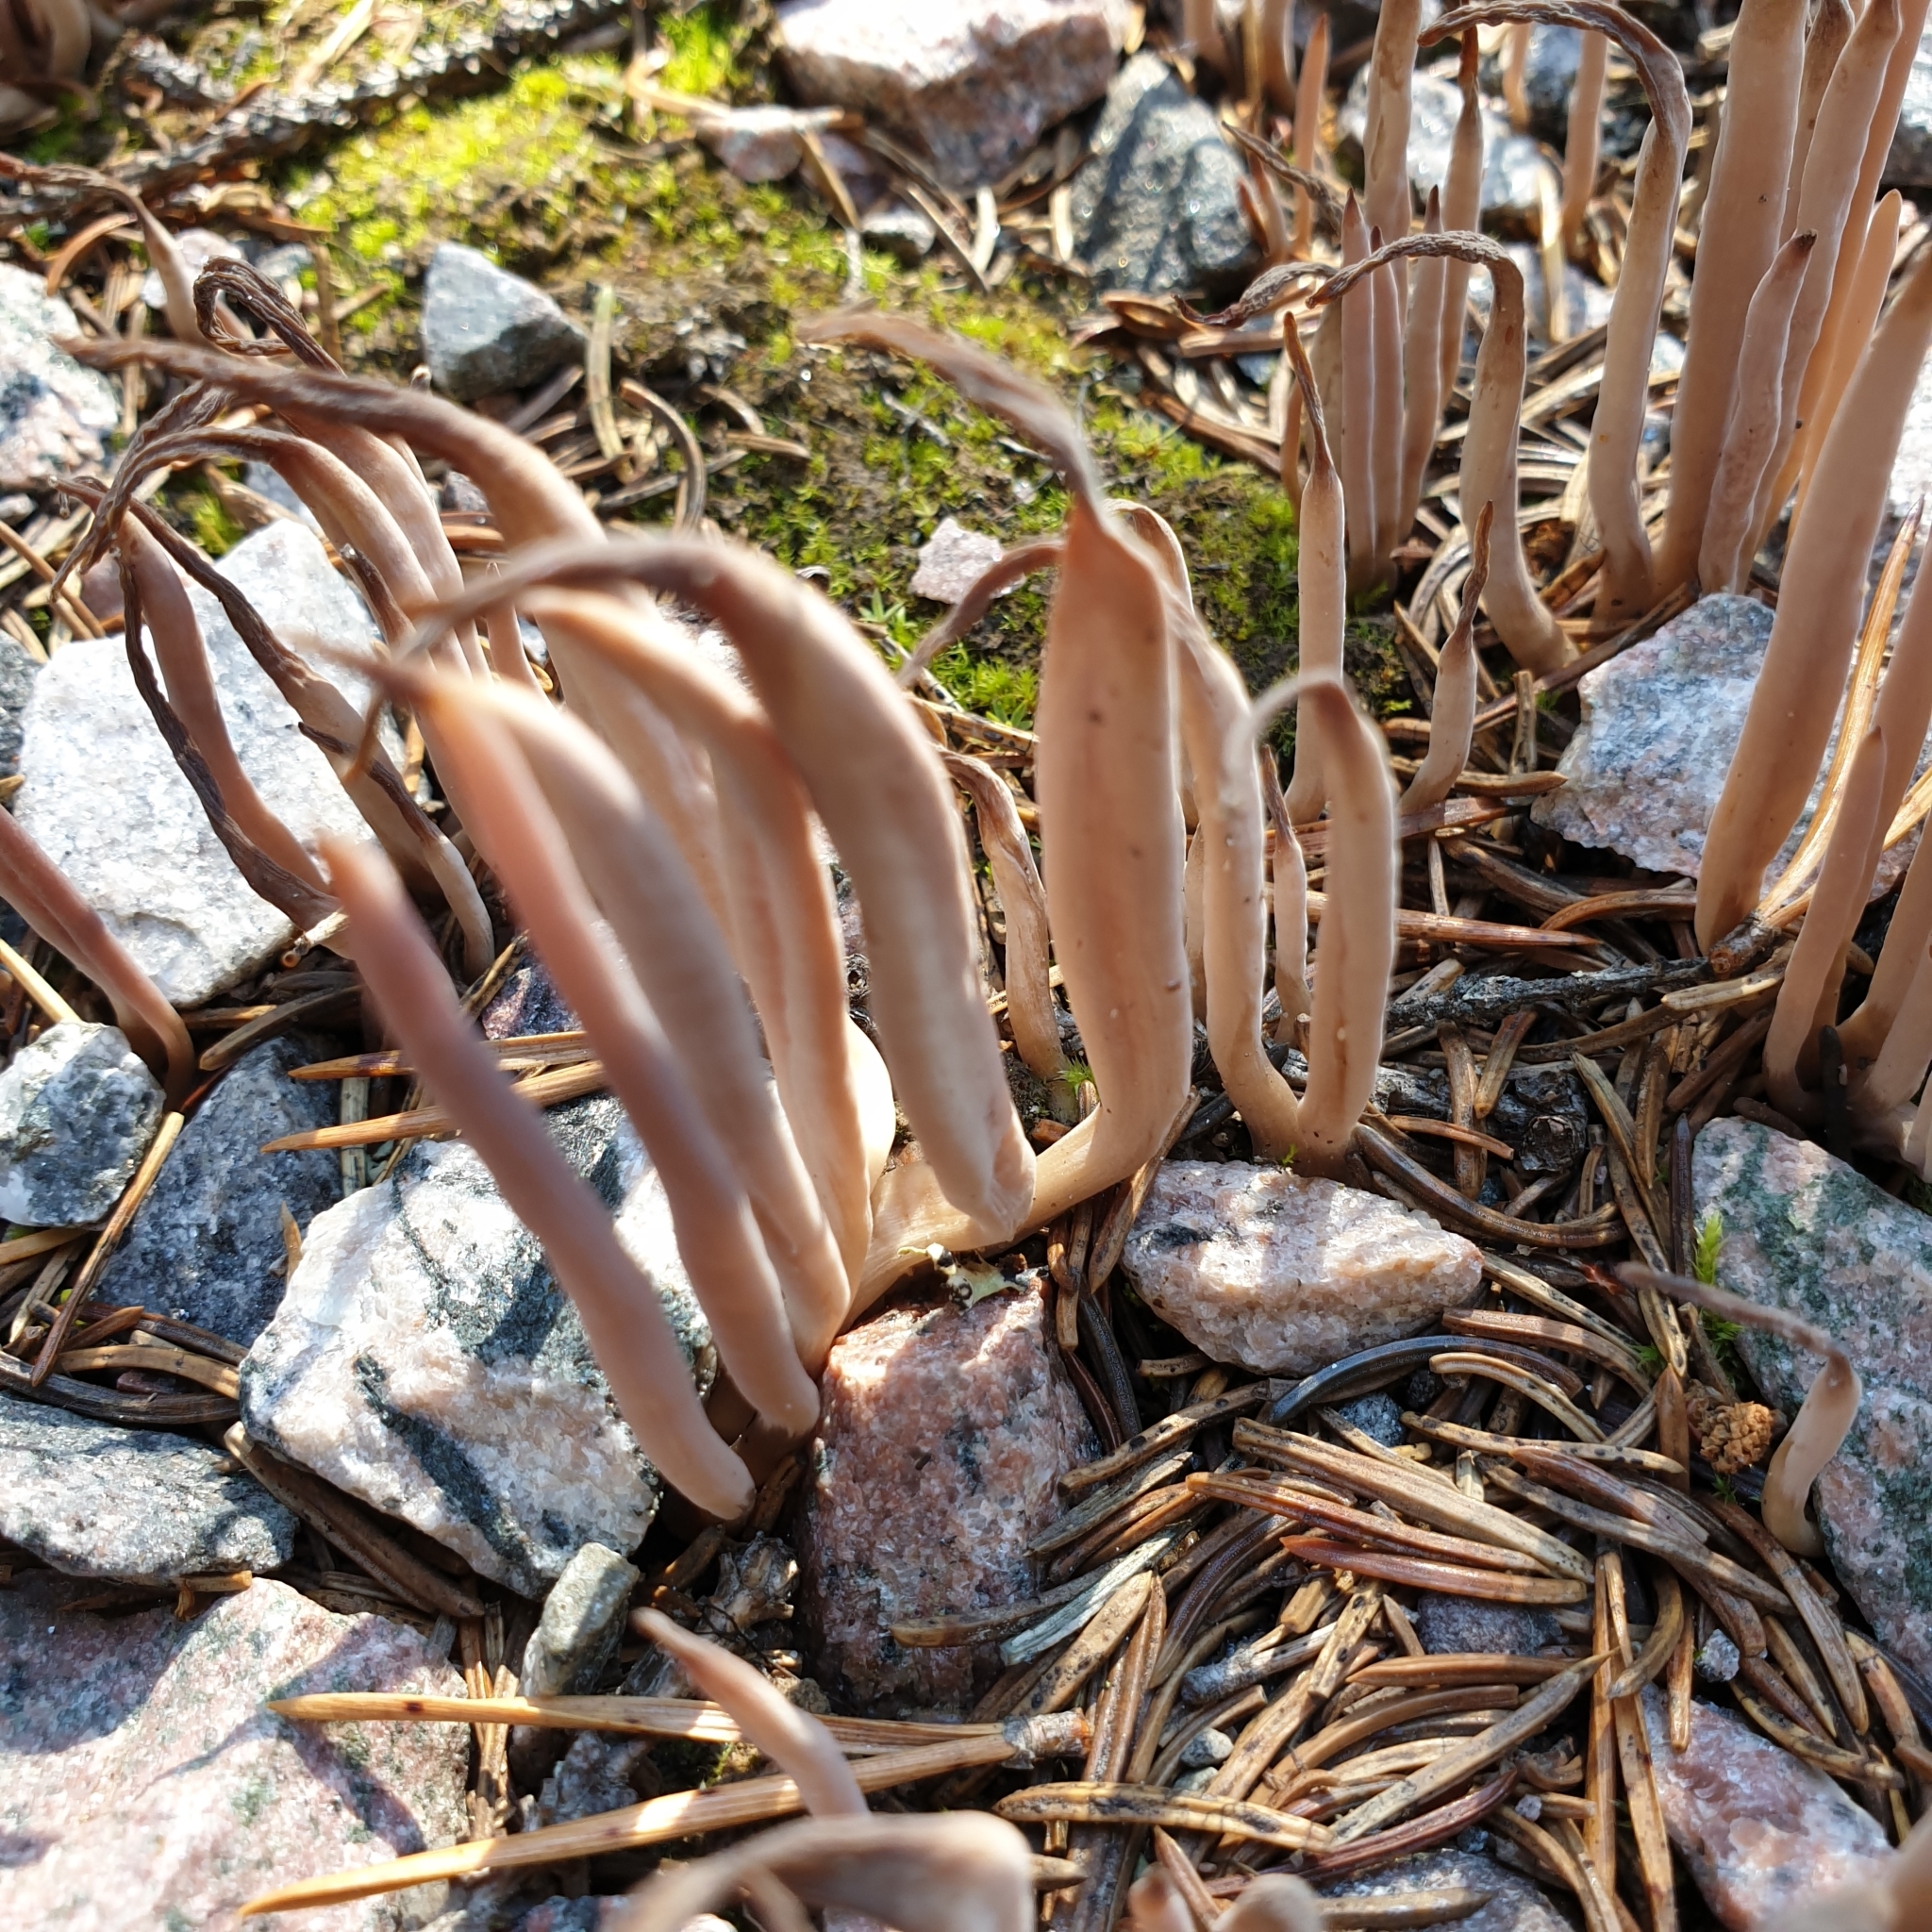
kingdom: Fungi
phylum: Basidiomycota
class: Agaricomycetes
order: Hymenochaetales
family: Rickenellaceae
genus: Alloclavaria
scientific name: Alloclavaria purpurea
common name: Purple spindles
